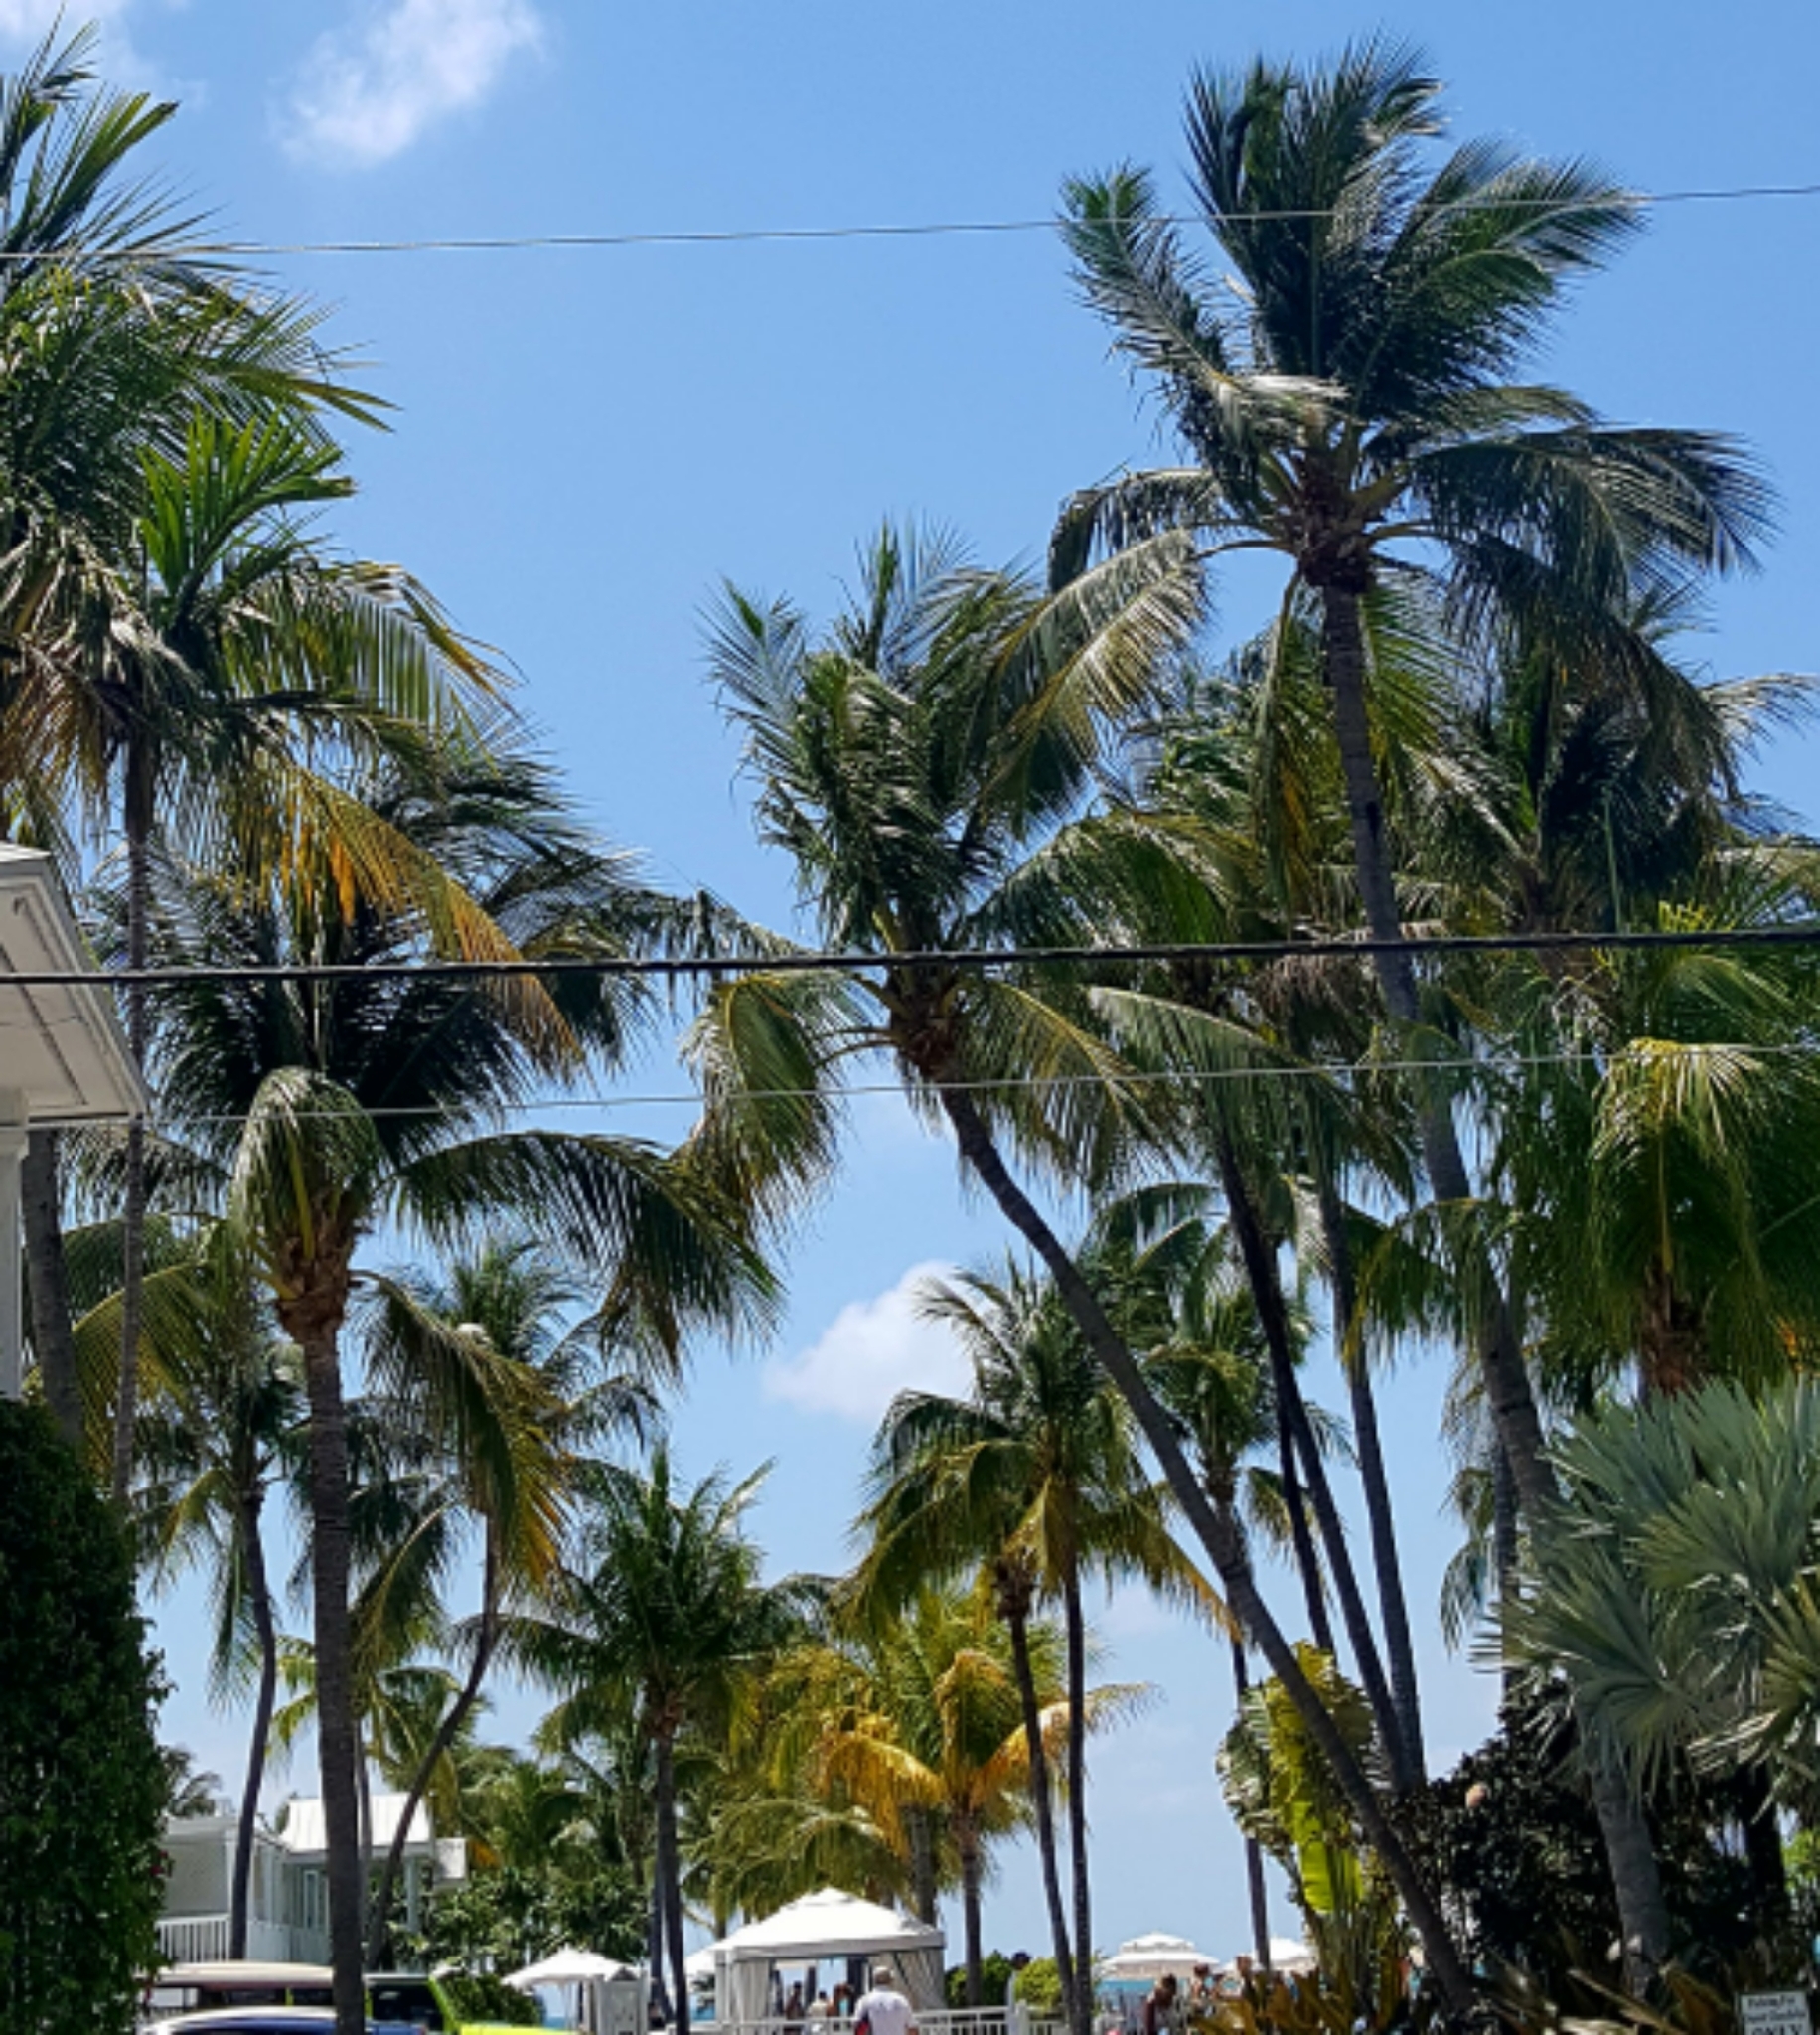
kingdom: Plantae
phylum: Tracheophyta
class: Liliopsida
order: Arecales
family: Arecaceae
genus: Cocos
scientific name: Cocos nucifera
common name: Coconut palm
